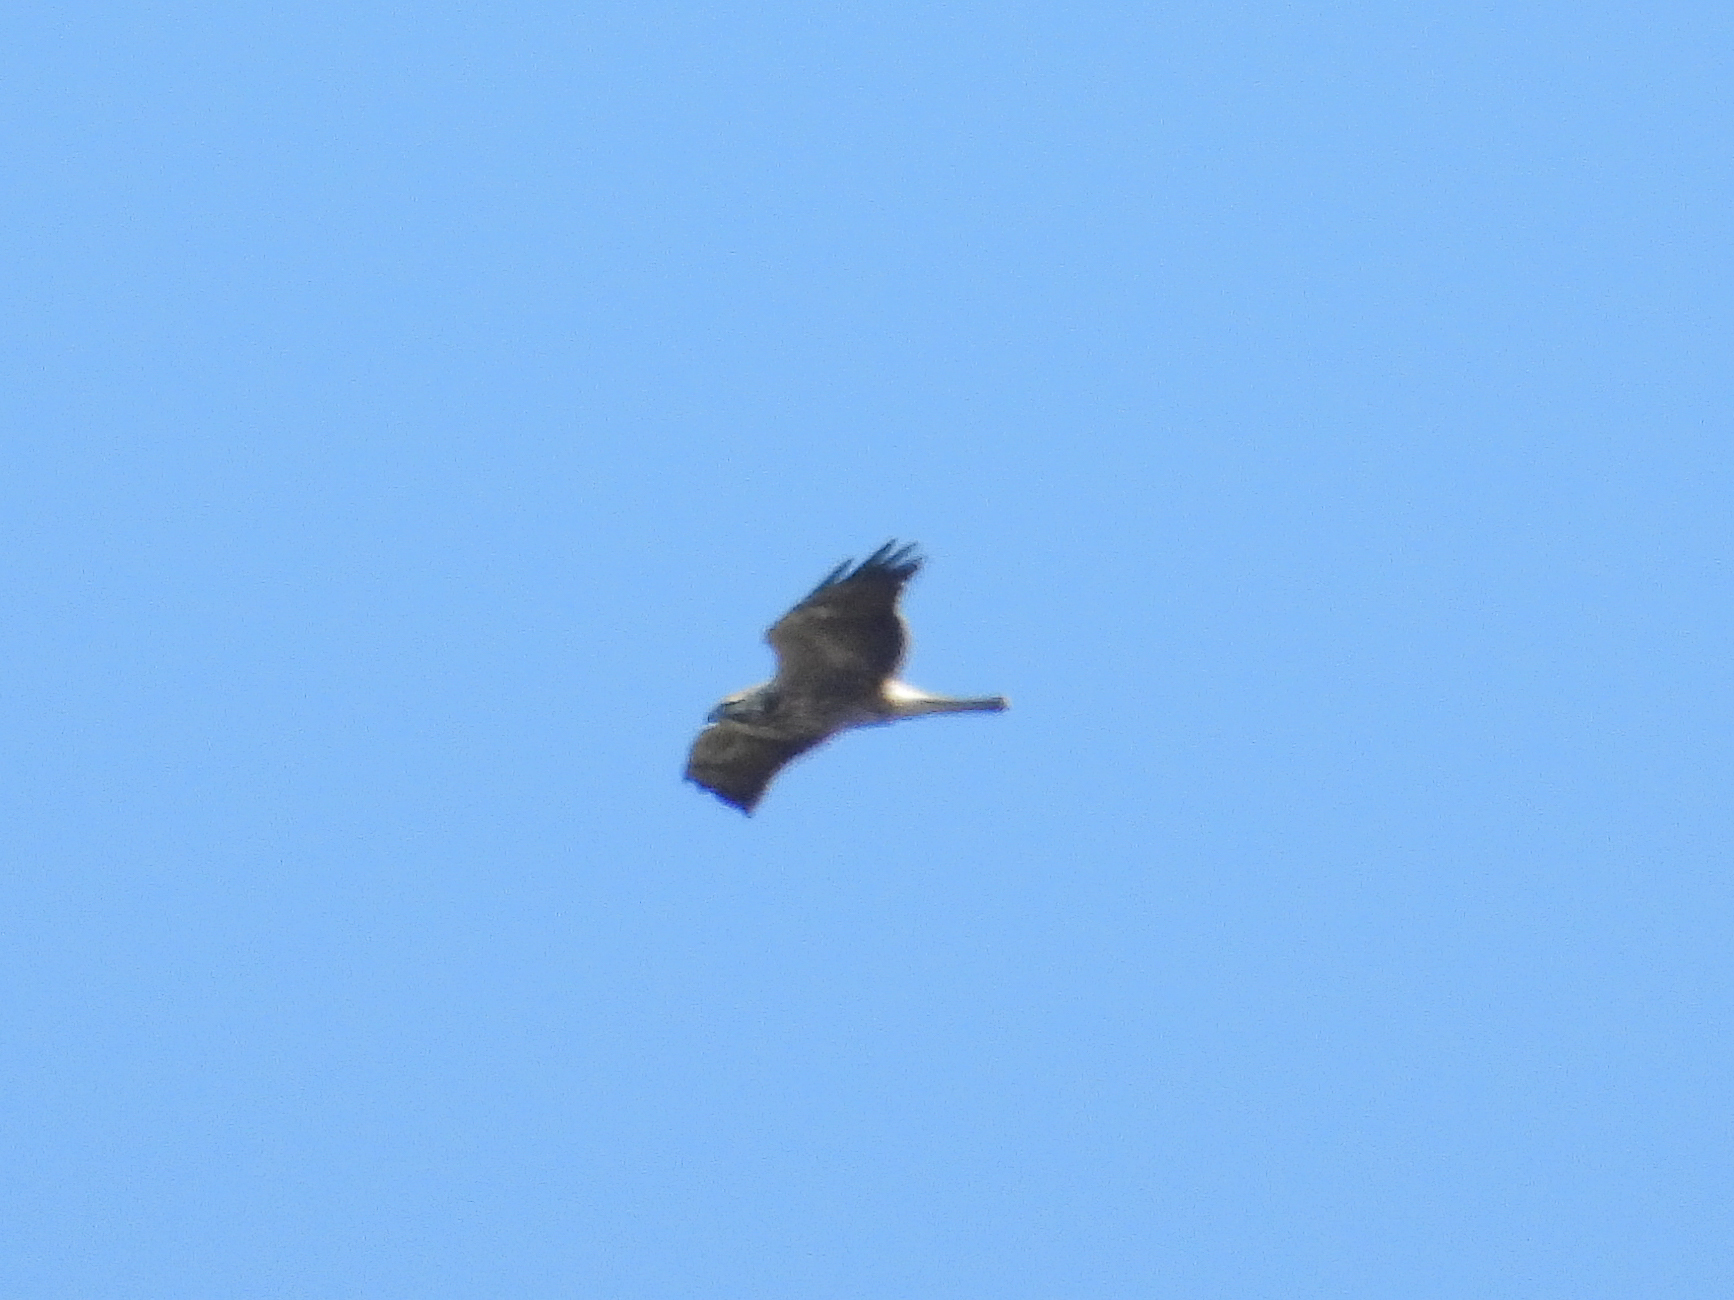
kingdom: Animalia
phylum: Chordata
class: Aves
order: Accipitriformes
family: Accipitridae
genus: Buteo
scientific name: Buteo swainsoni
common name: Swainson's hawk
